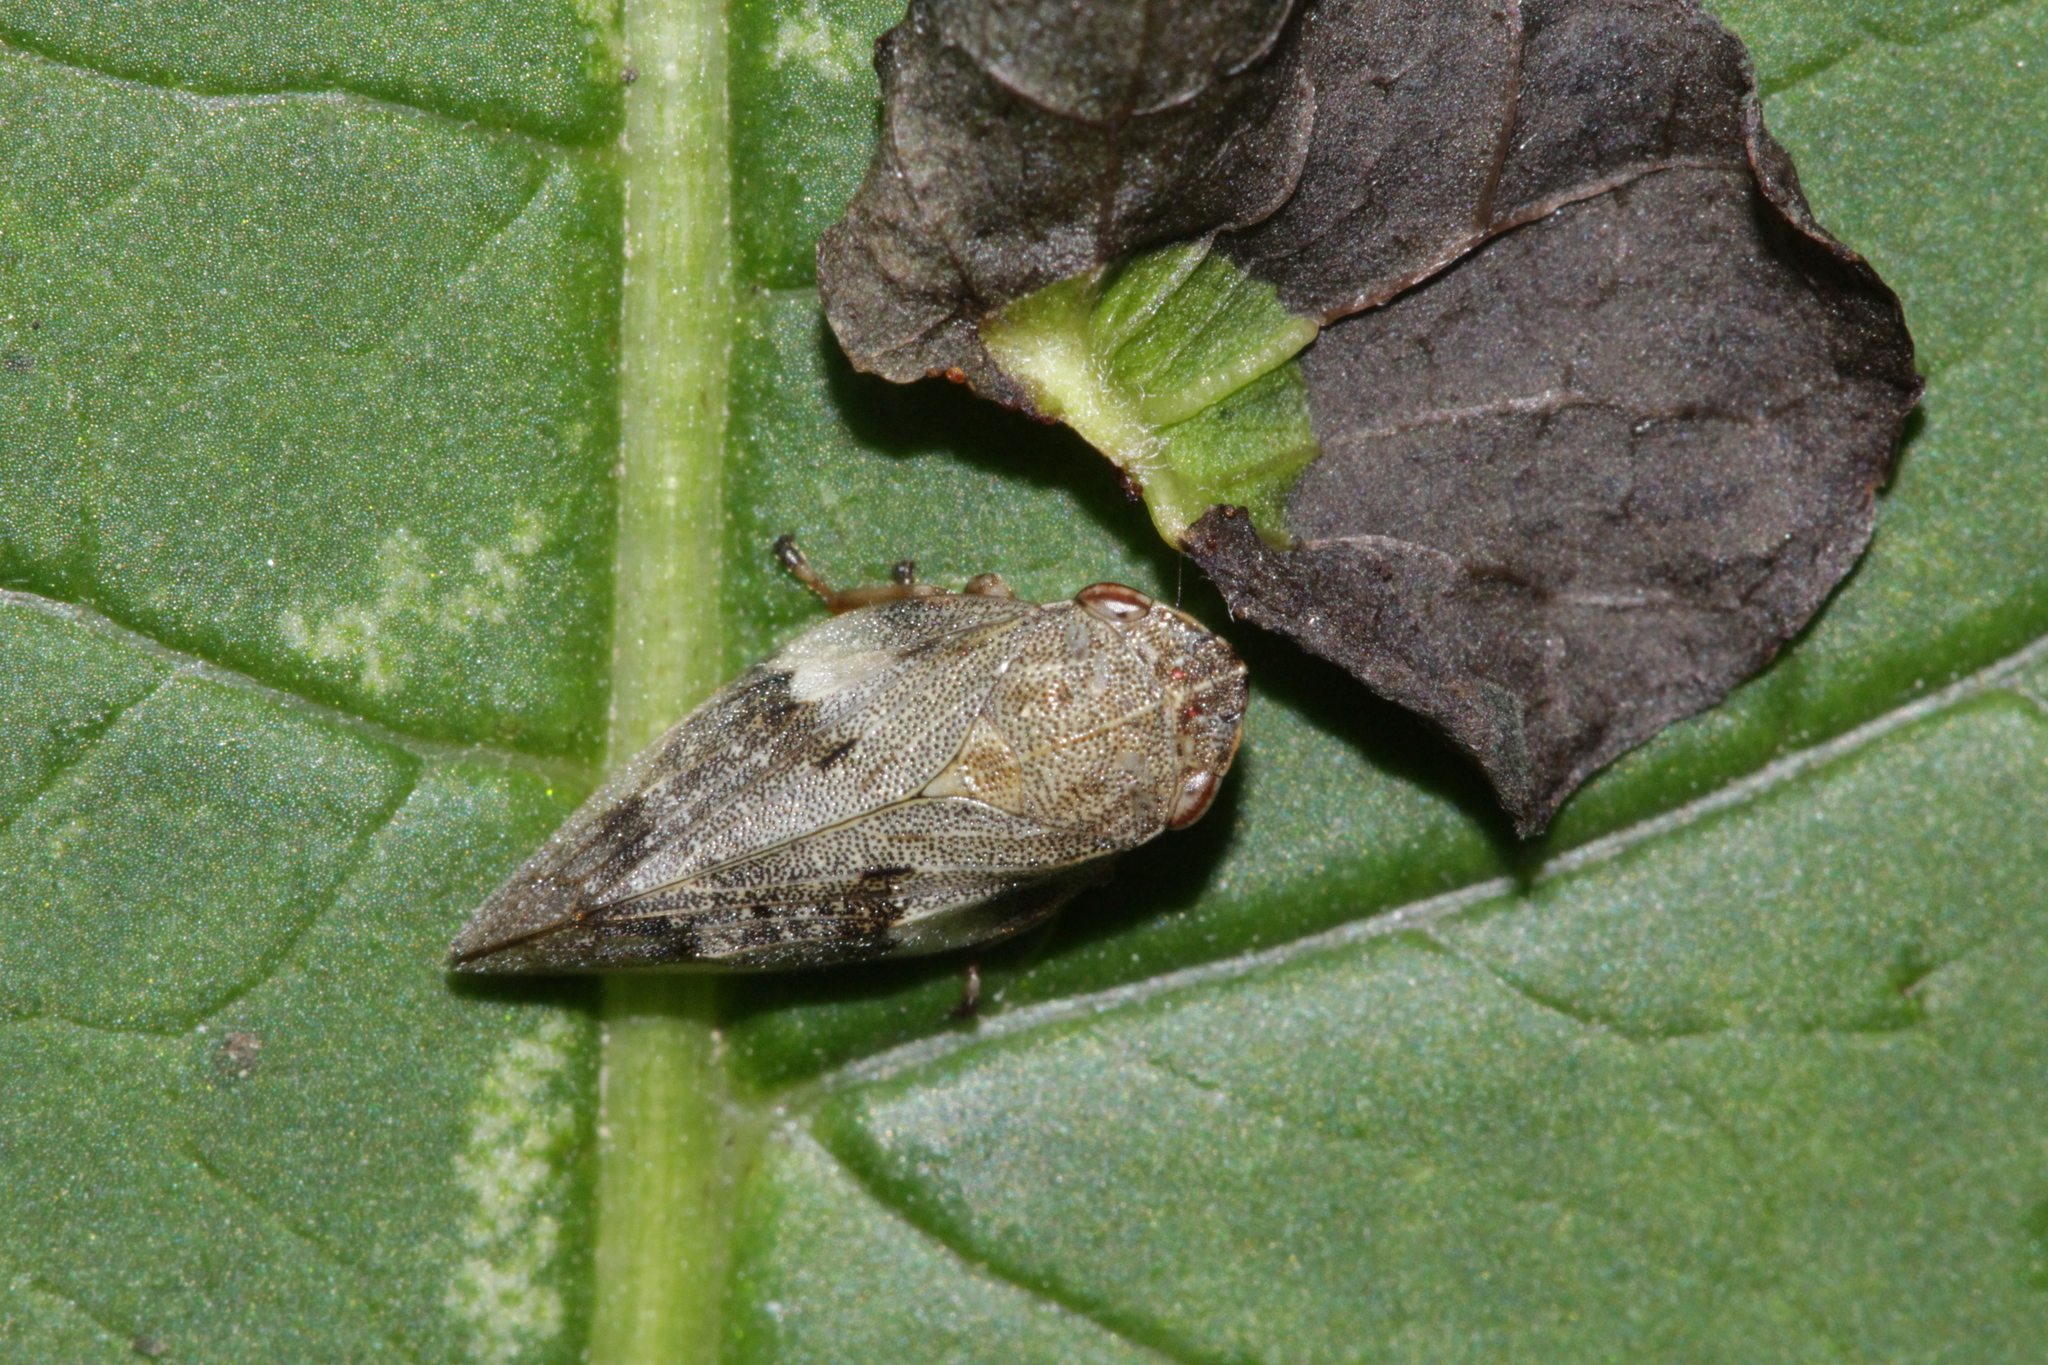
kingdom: Animalia
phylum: Arthropoda
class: Insecta
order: Hemiptera
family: Aphrophoridae
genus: Aphrophora
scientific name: Aphrophora alni
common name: European alder spittlebug
